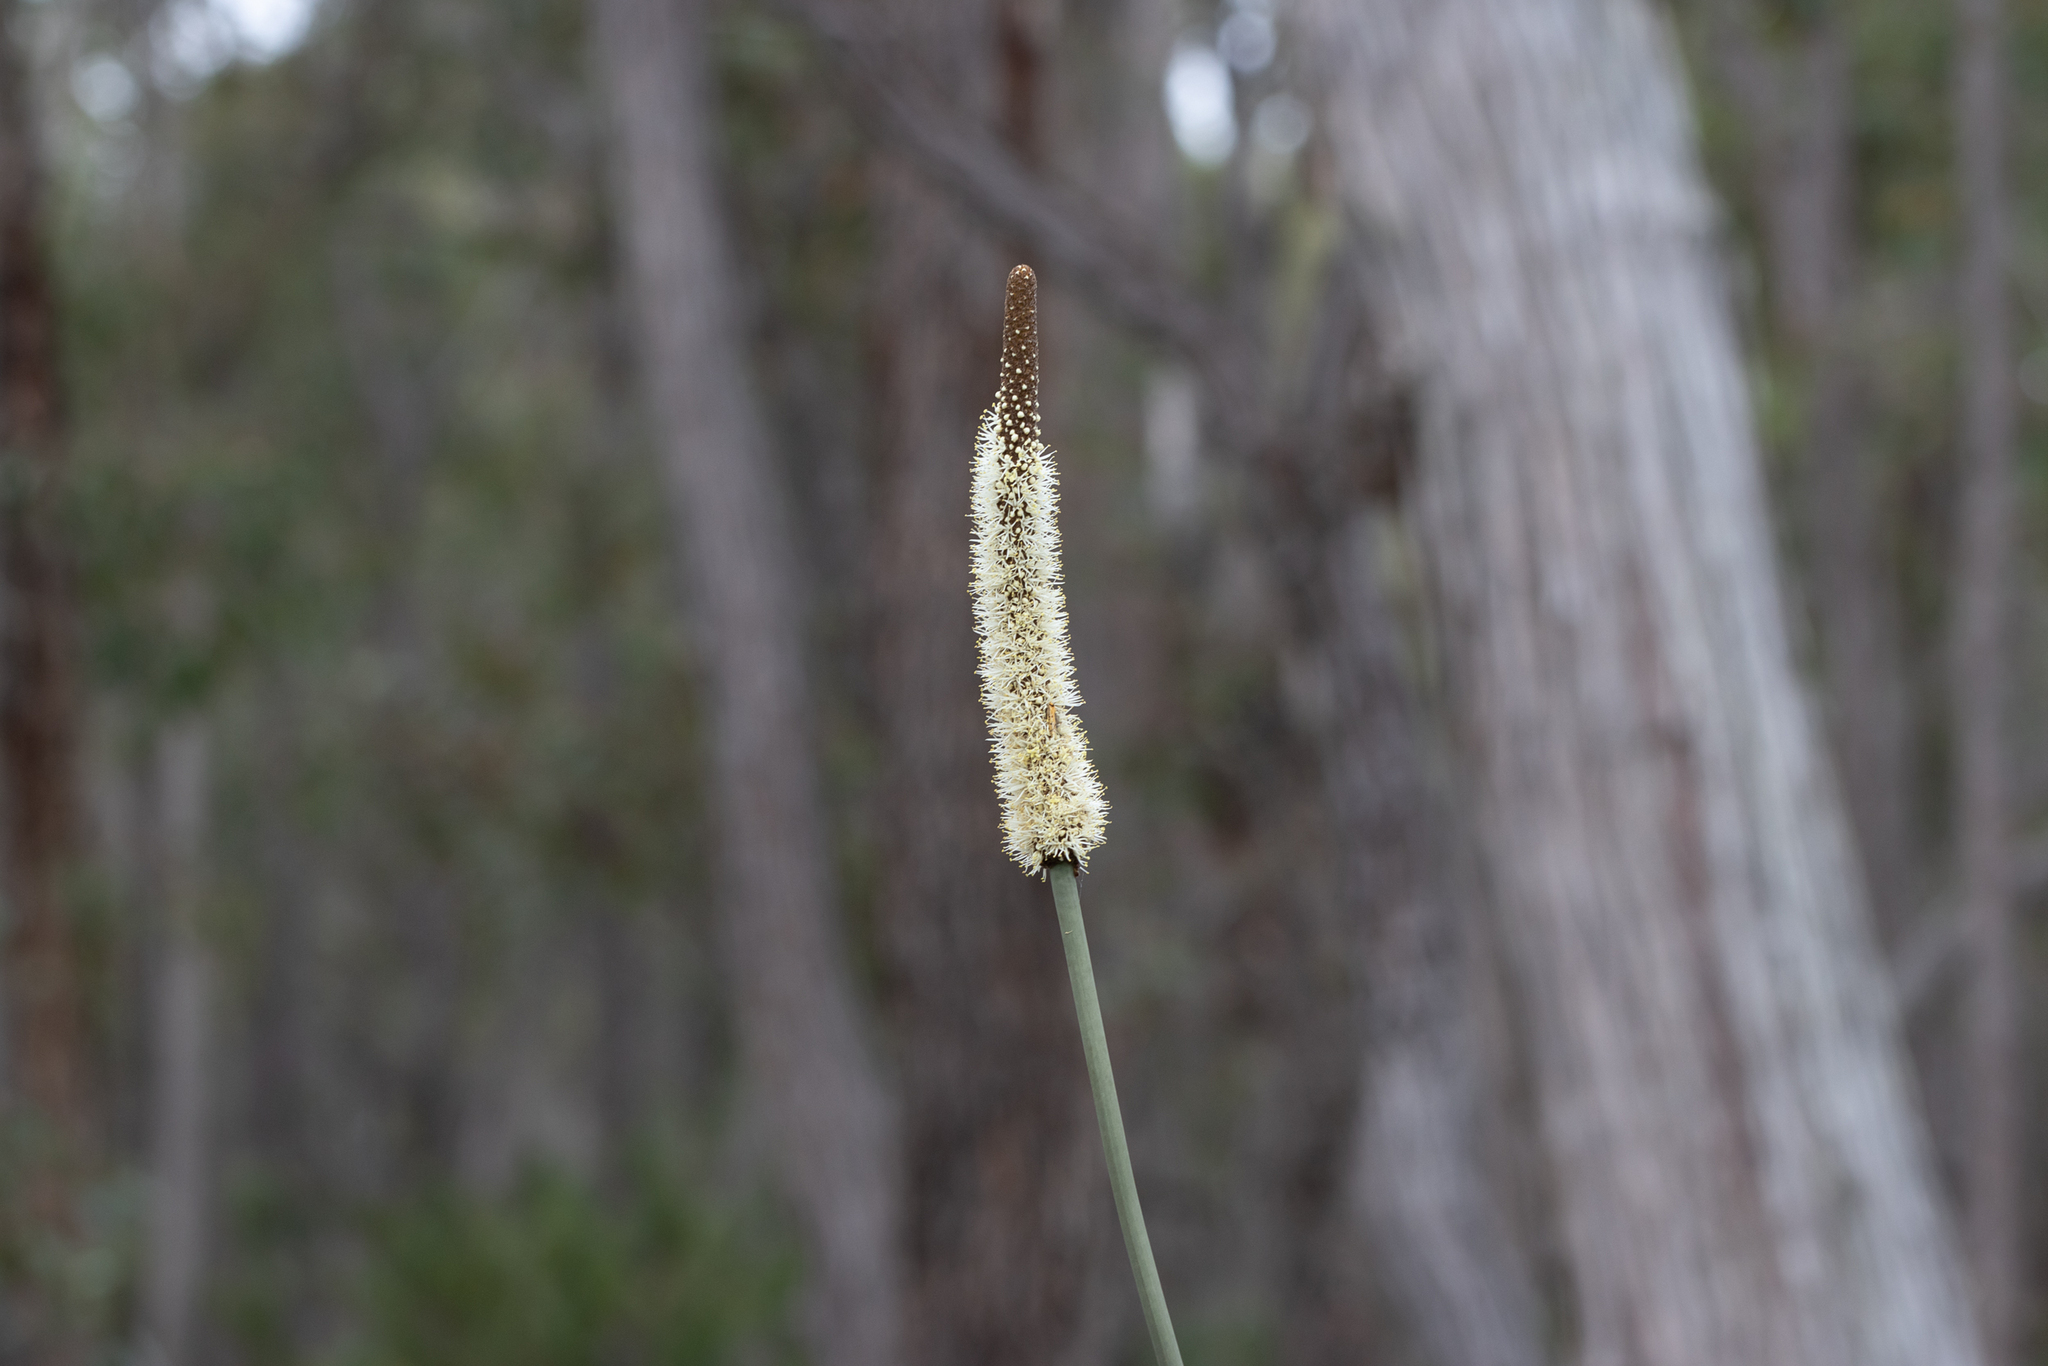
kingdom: Plantae
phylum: Tracheophyta
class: Liliopsida
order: Asparagales
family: Asphodelaceae
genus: Xanthorrhoea
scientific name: Xanthorrhoea gracilis
